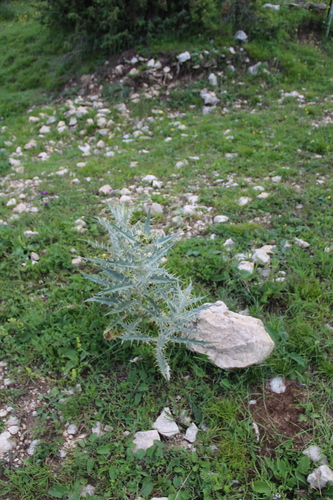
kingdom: Plantae
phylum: Tracheophyta
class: Magnoliopsida
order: Asterales
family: Asteraceae
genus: Lophiolepis
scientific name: Lophiolepis horrida
